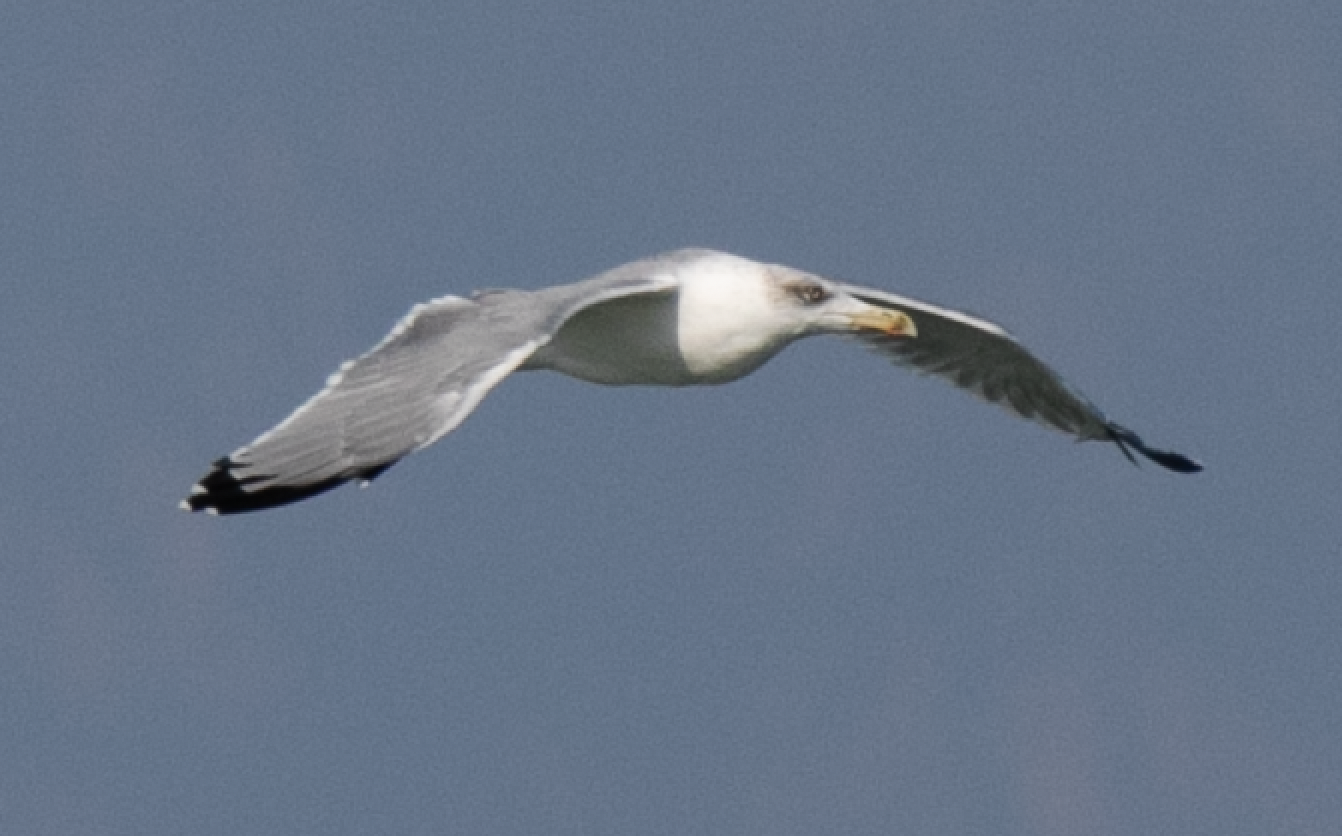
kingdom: Animalia
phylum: Chordata
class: Aves
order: Charadriiformes
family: Laridae
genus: Larus
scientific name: Larus michahellis
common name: Yellow-legged gull
